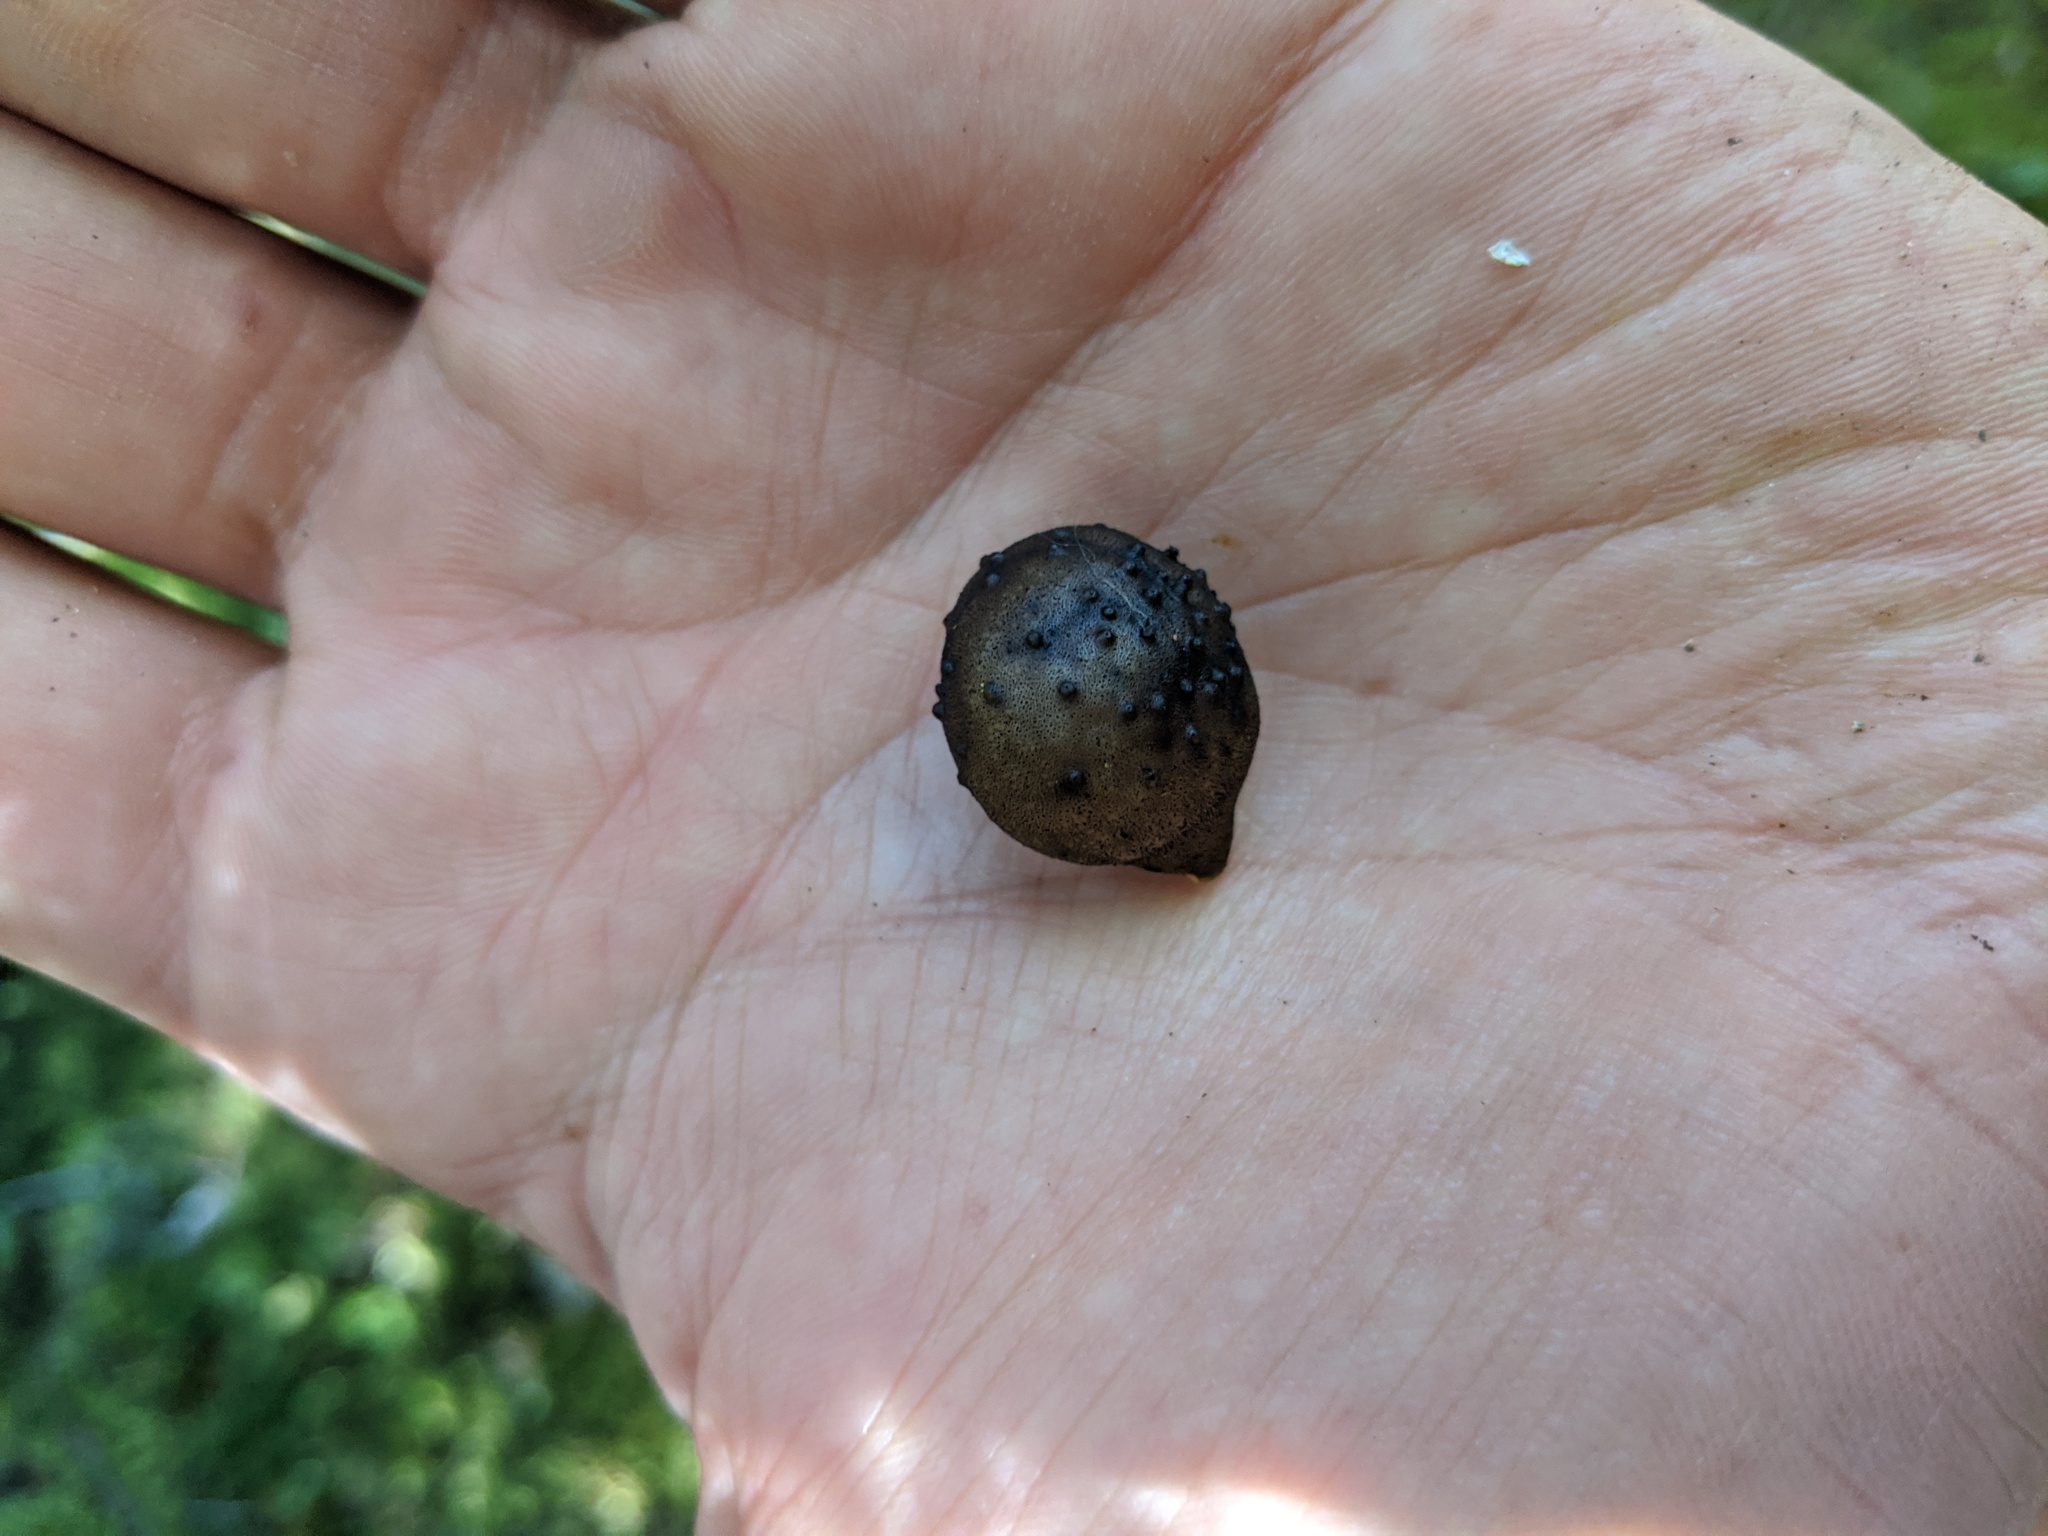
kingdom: Fungi
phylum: Ascomycota
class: Leotiomycetes
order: Cyttariales
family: Cyttariaceae
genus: Cyttaria
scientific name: Cyttaria nigra
